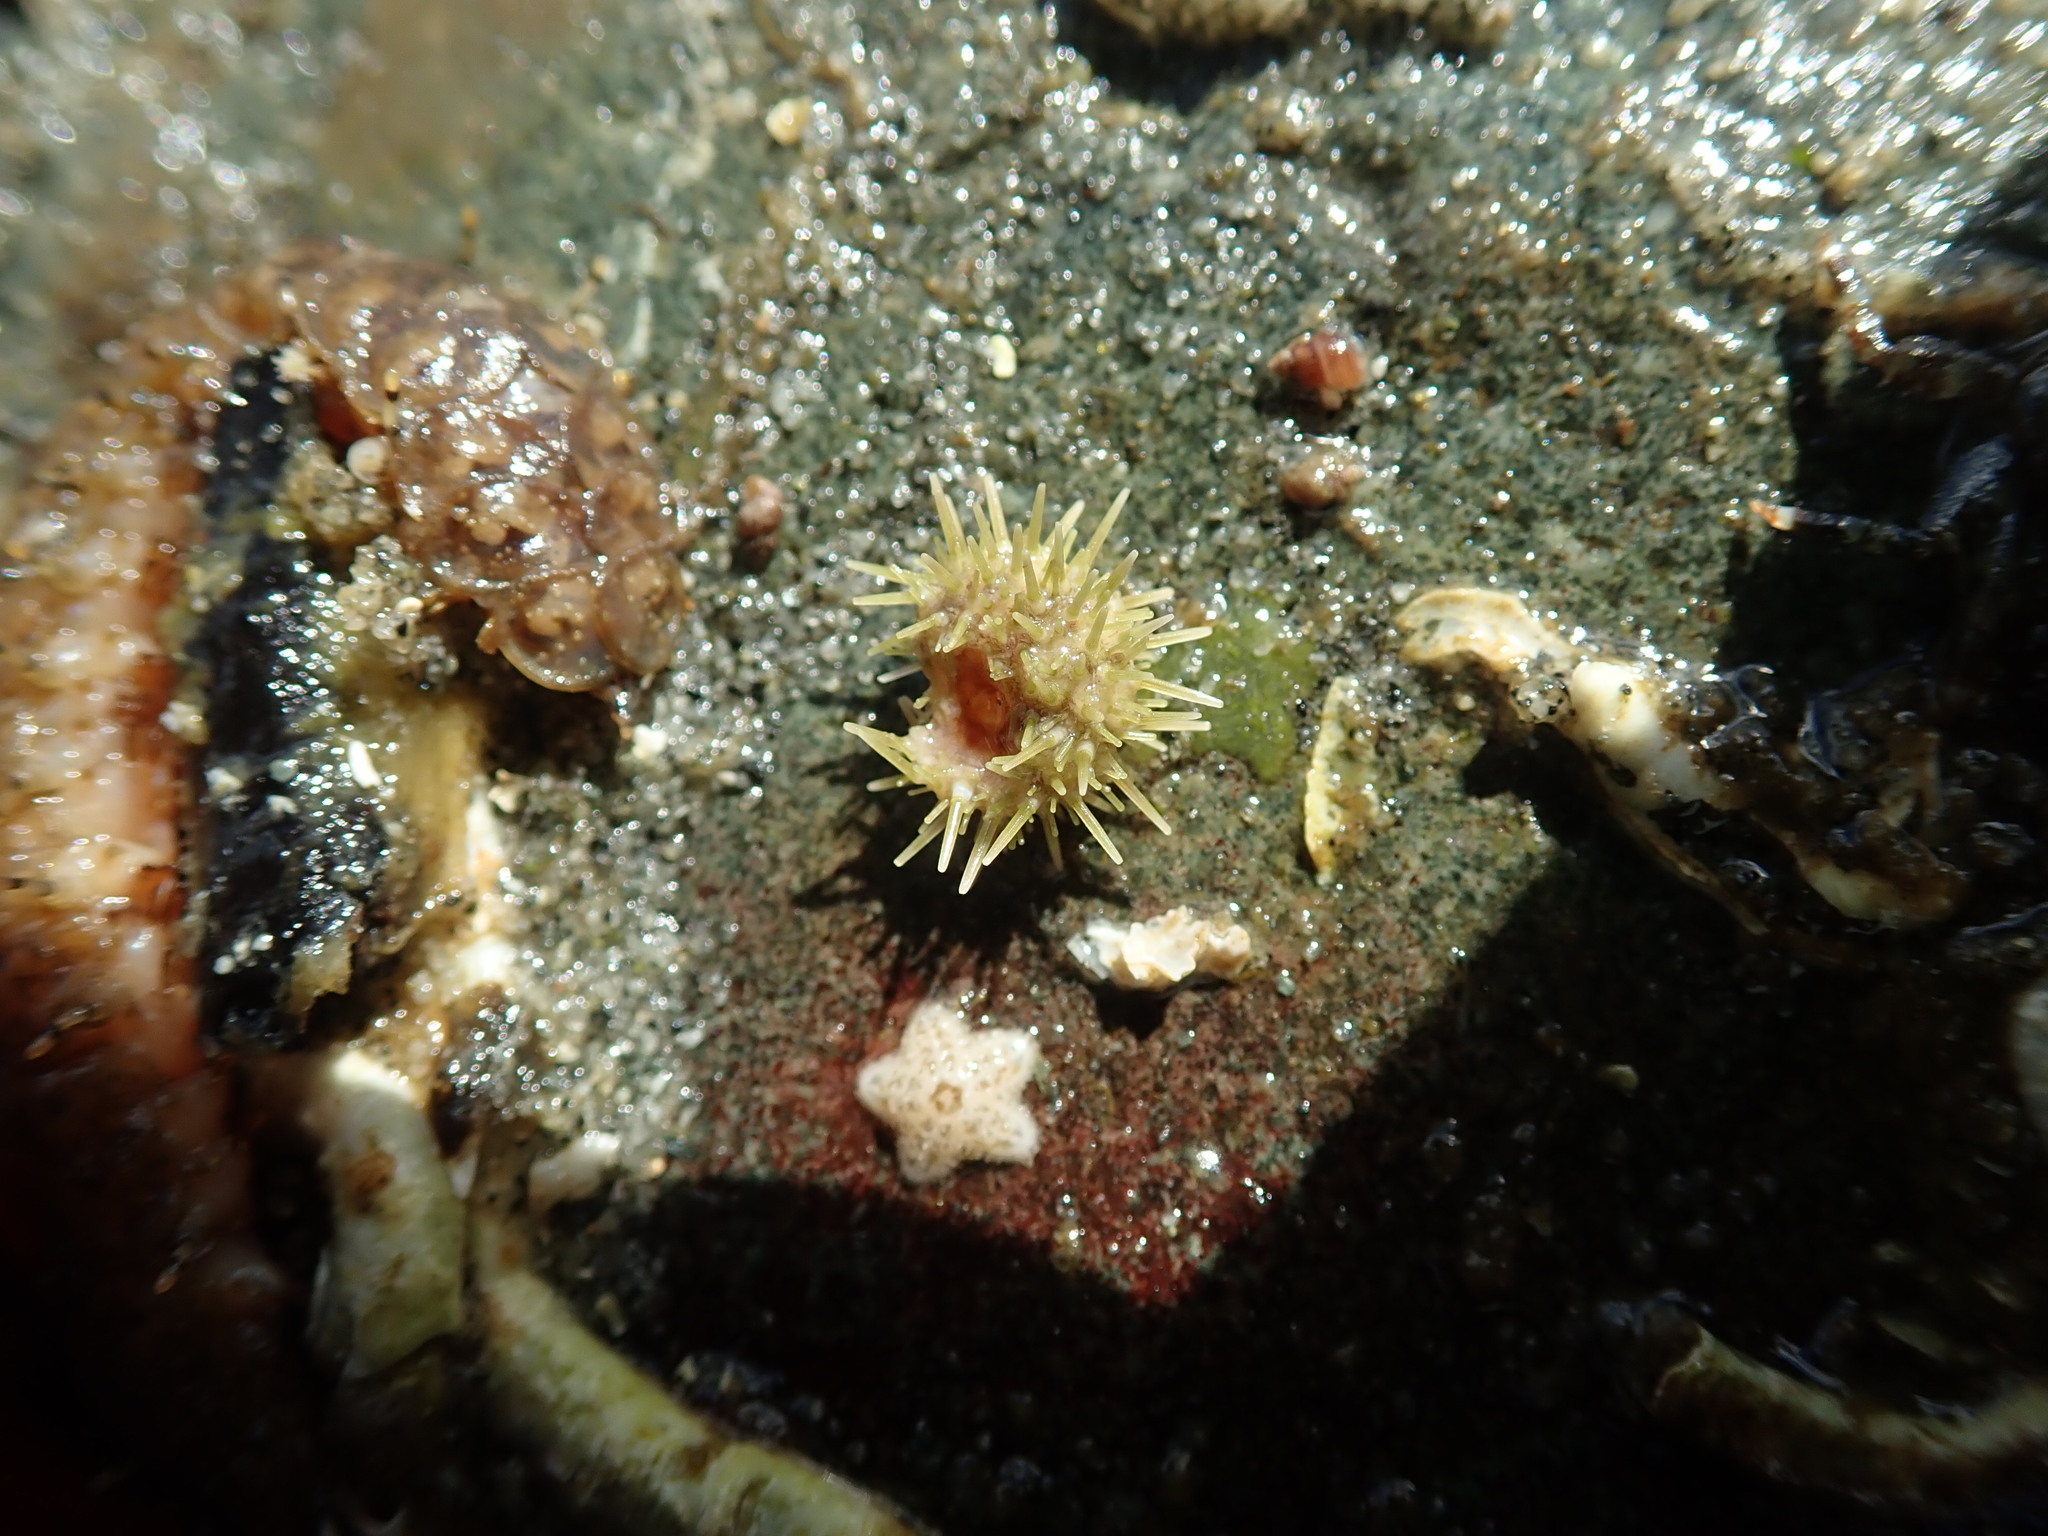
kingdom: Animalia
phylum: Echinodermata
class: Echinoidea
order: Camarodonta
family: Strongylocentrotidae
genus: Strongylocentrotus
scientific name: Strongylocentrotus droebachiensis
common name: Northern sea urchin
